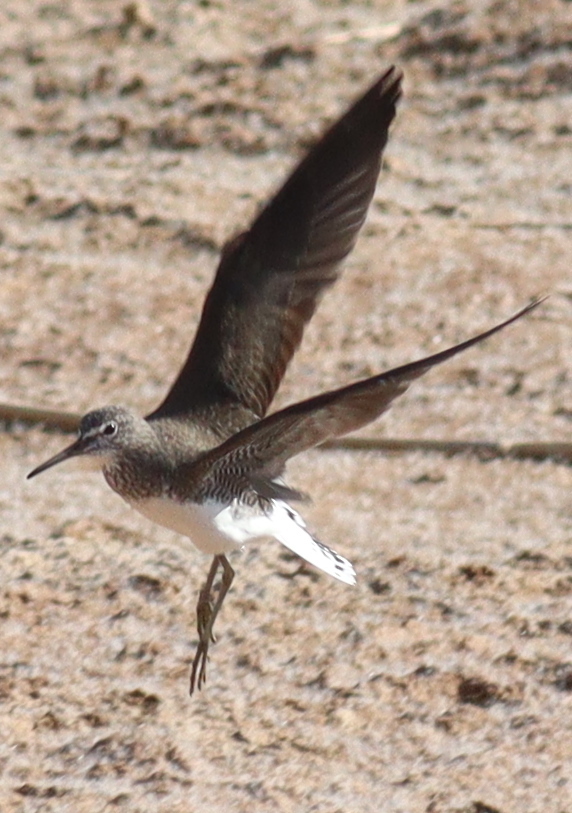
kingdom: Animalia
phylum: Chordata
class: Aves
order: Charadriiformes
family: Scolopacidae
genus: Tringa
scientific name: Tringa ochropus
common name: Green sandpiper
